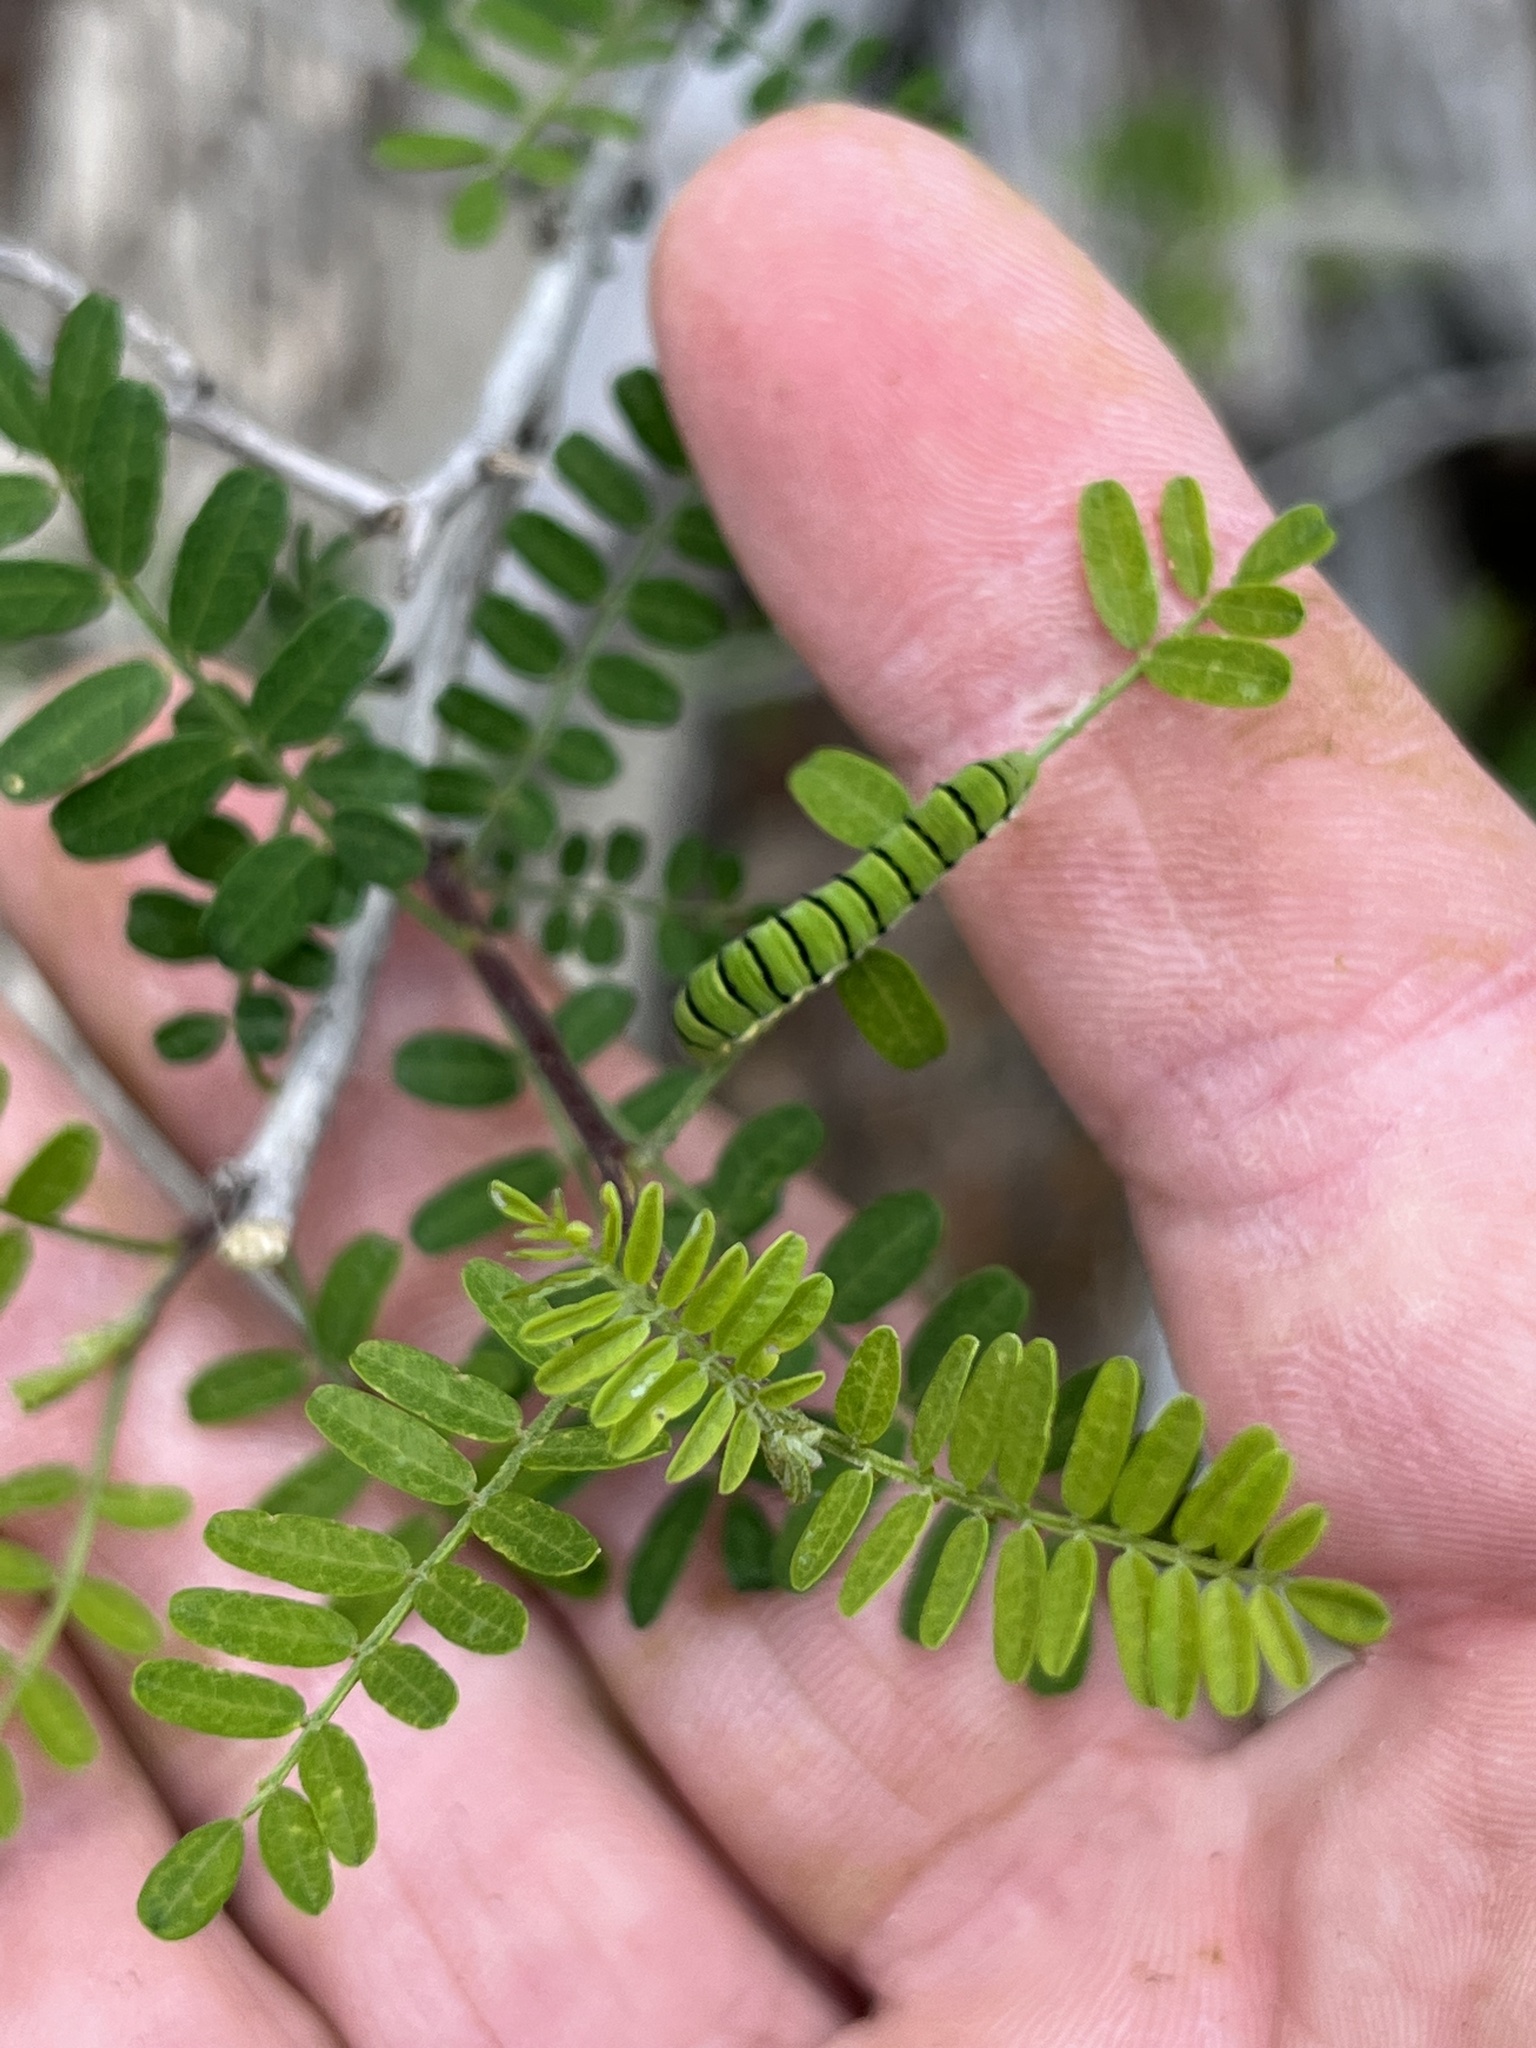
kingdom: Animalia
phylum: Arthropoda
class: Insecta
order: Lepidoptera
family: Pieridae
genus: Zerene
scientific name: Zerene cesonia
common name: Southern dogface
